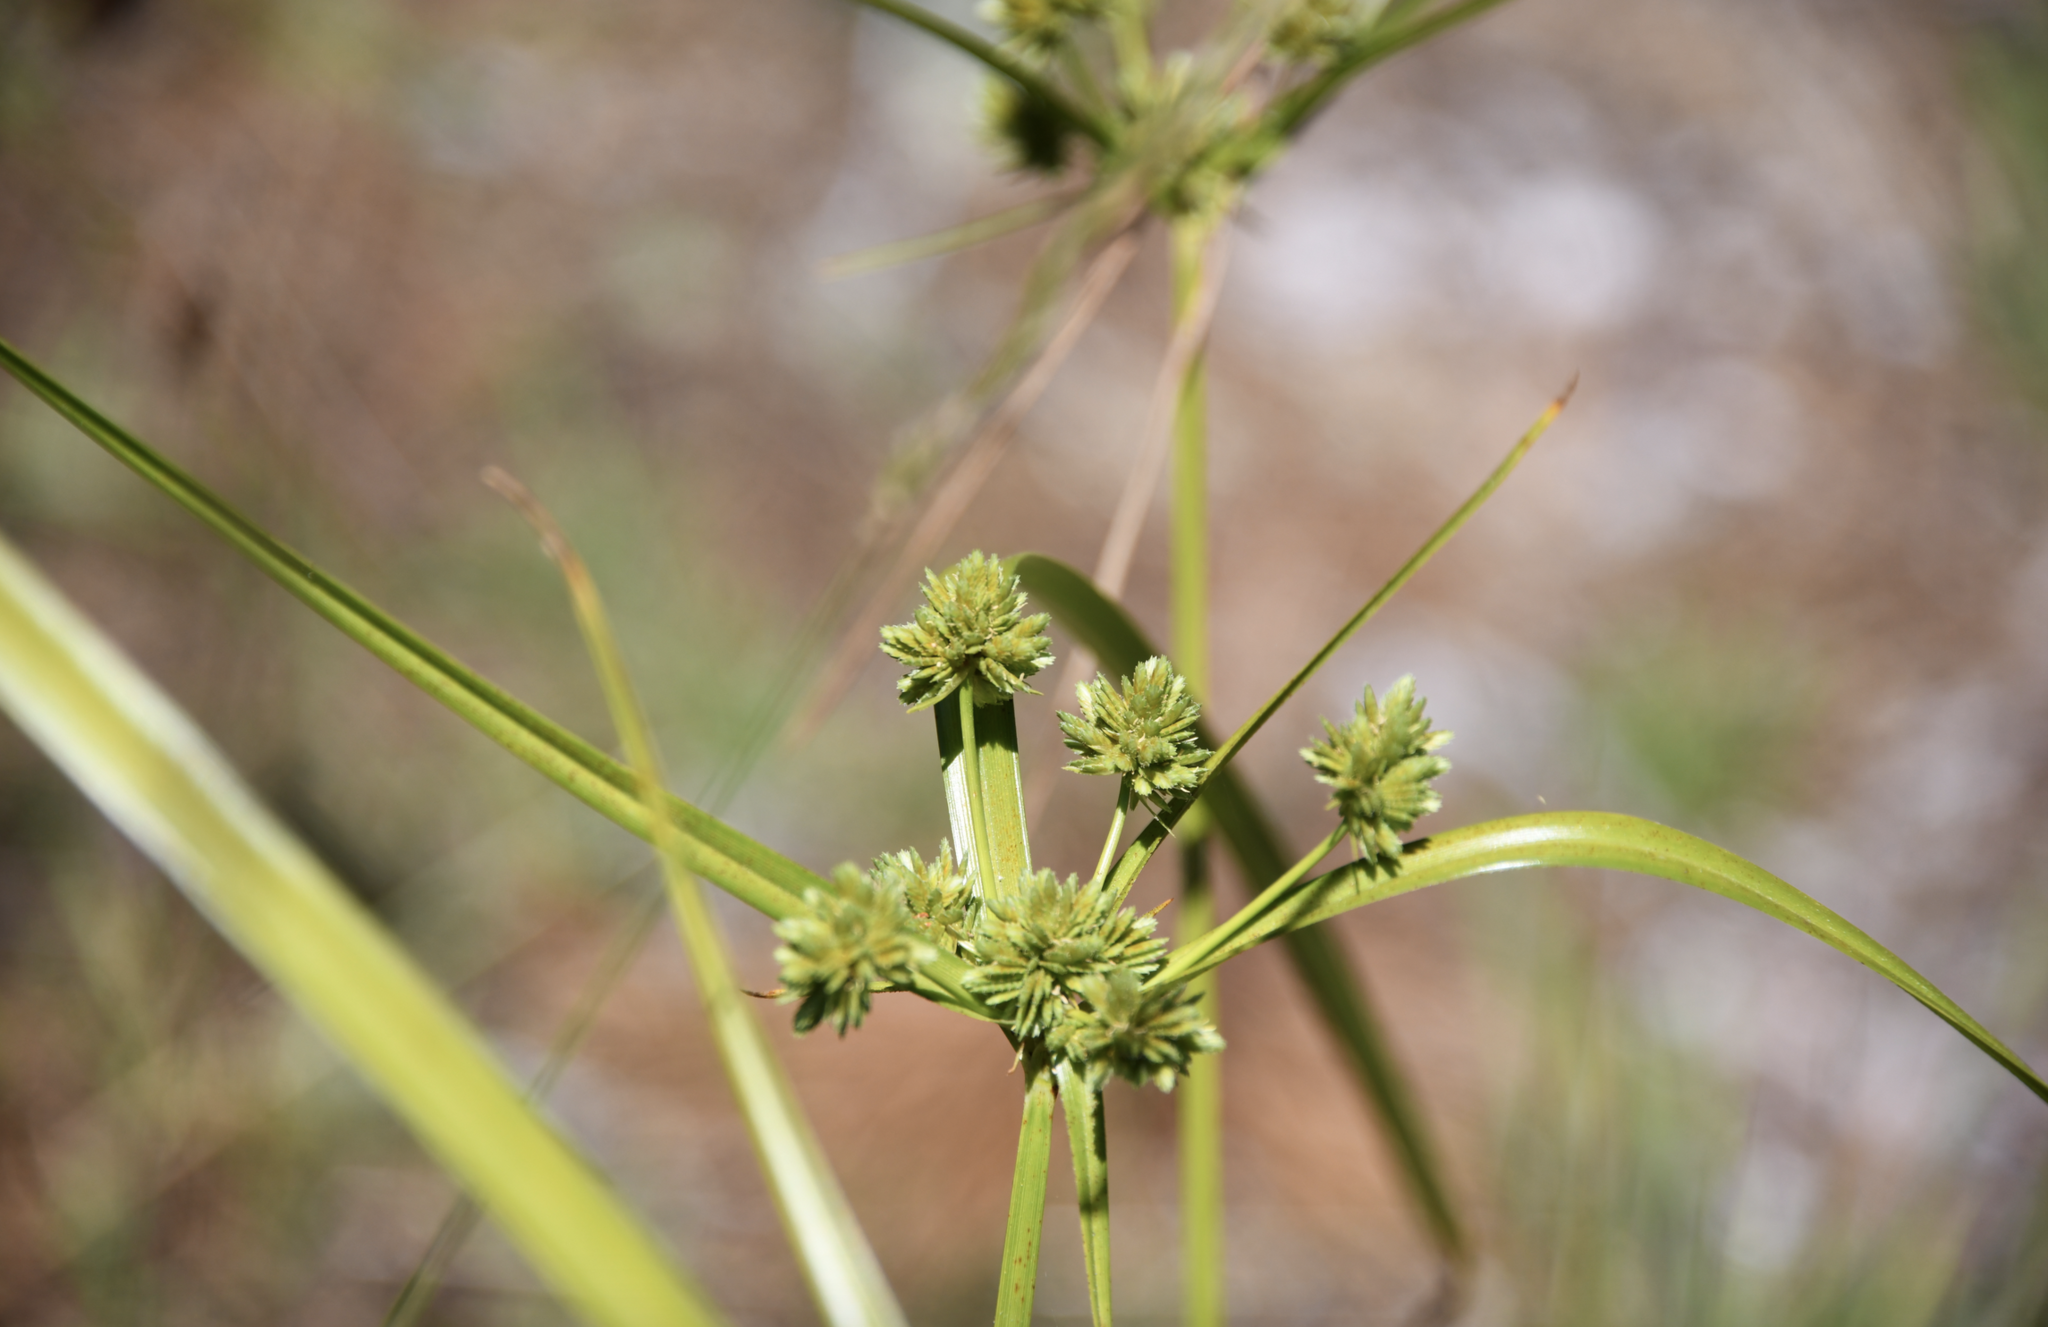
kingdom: Plantae
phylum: Tracheophyta
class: Liliopsida
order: Poales
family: Cyperaceae
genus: Cyperus
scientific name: Cyperus eragrostis
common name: Tall flatsedge
